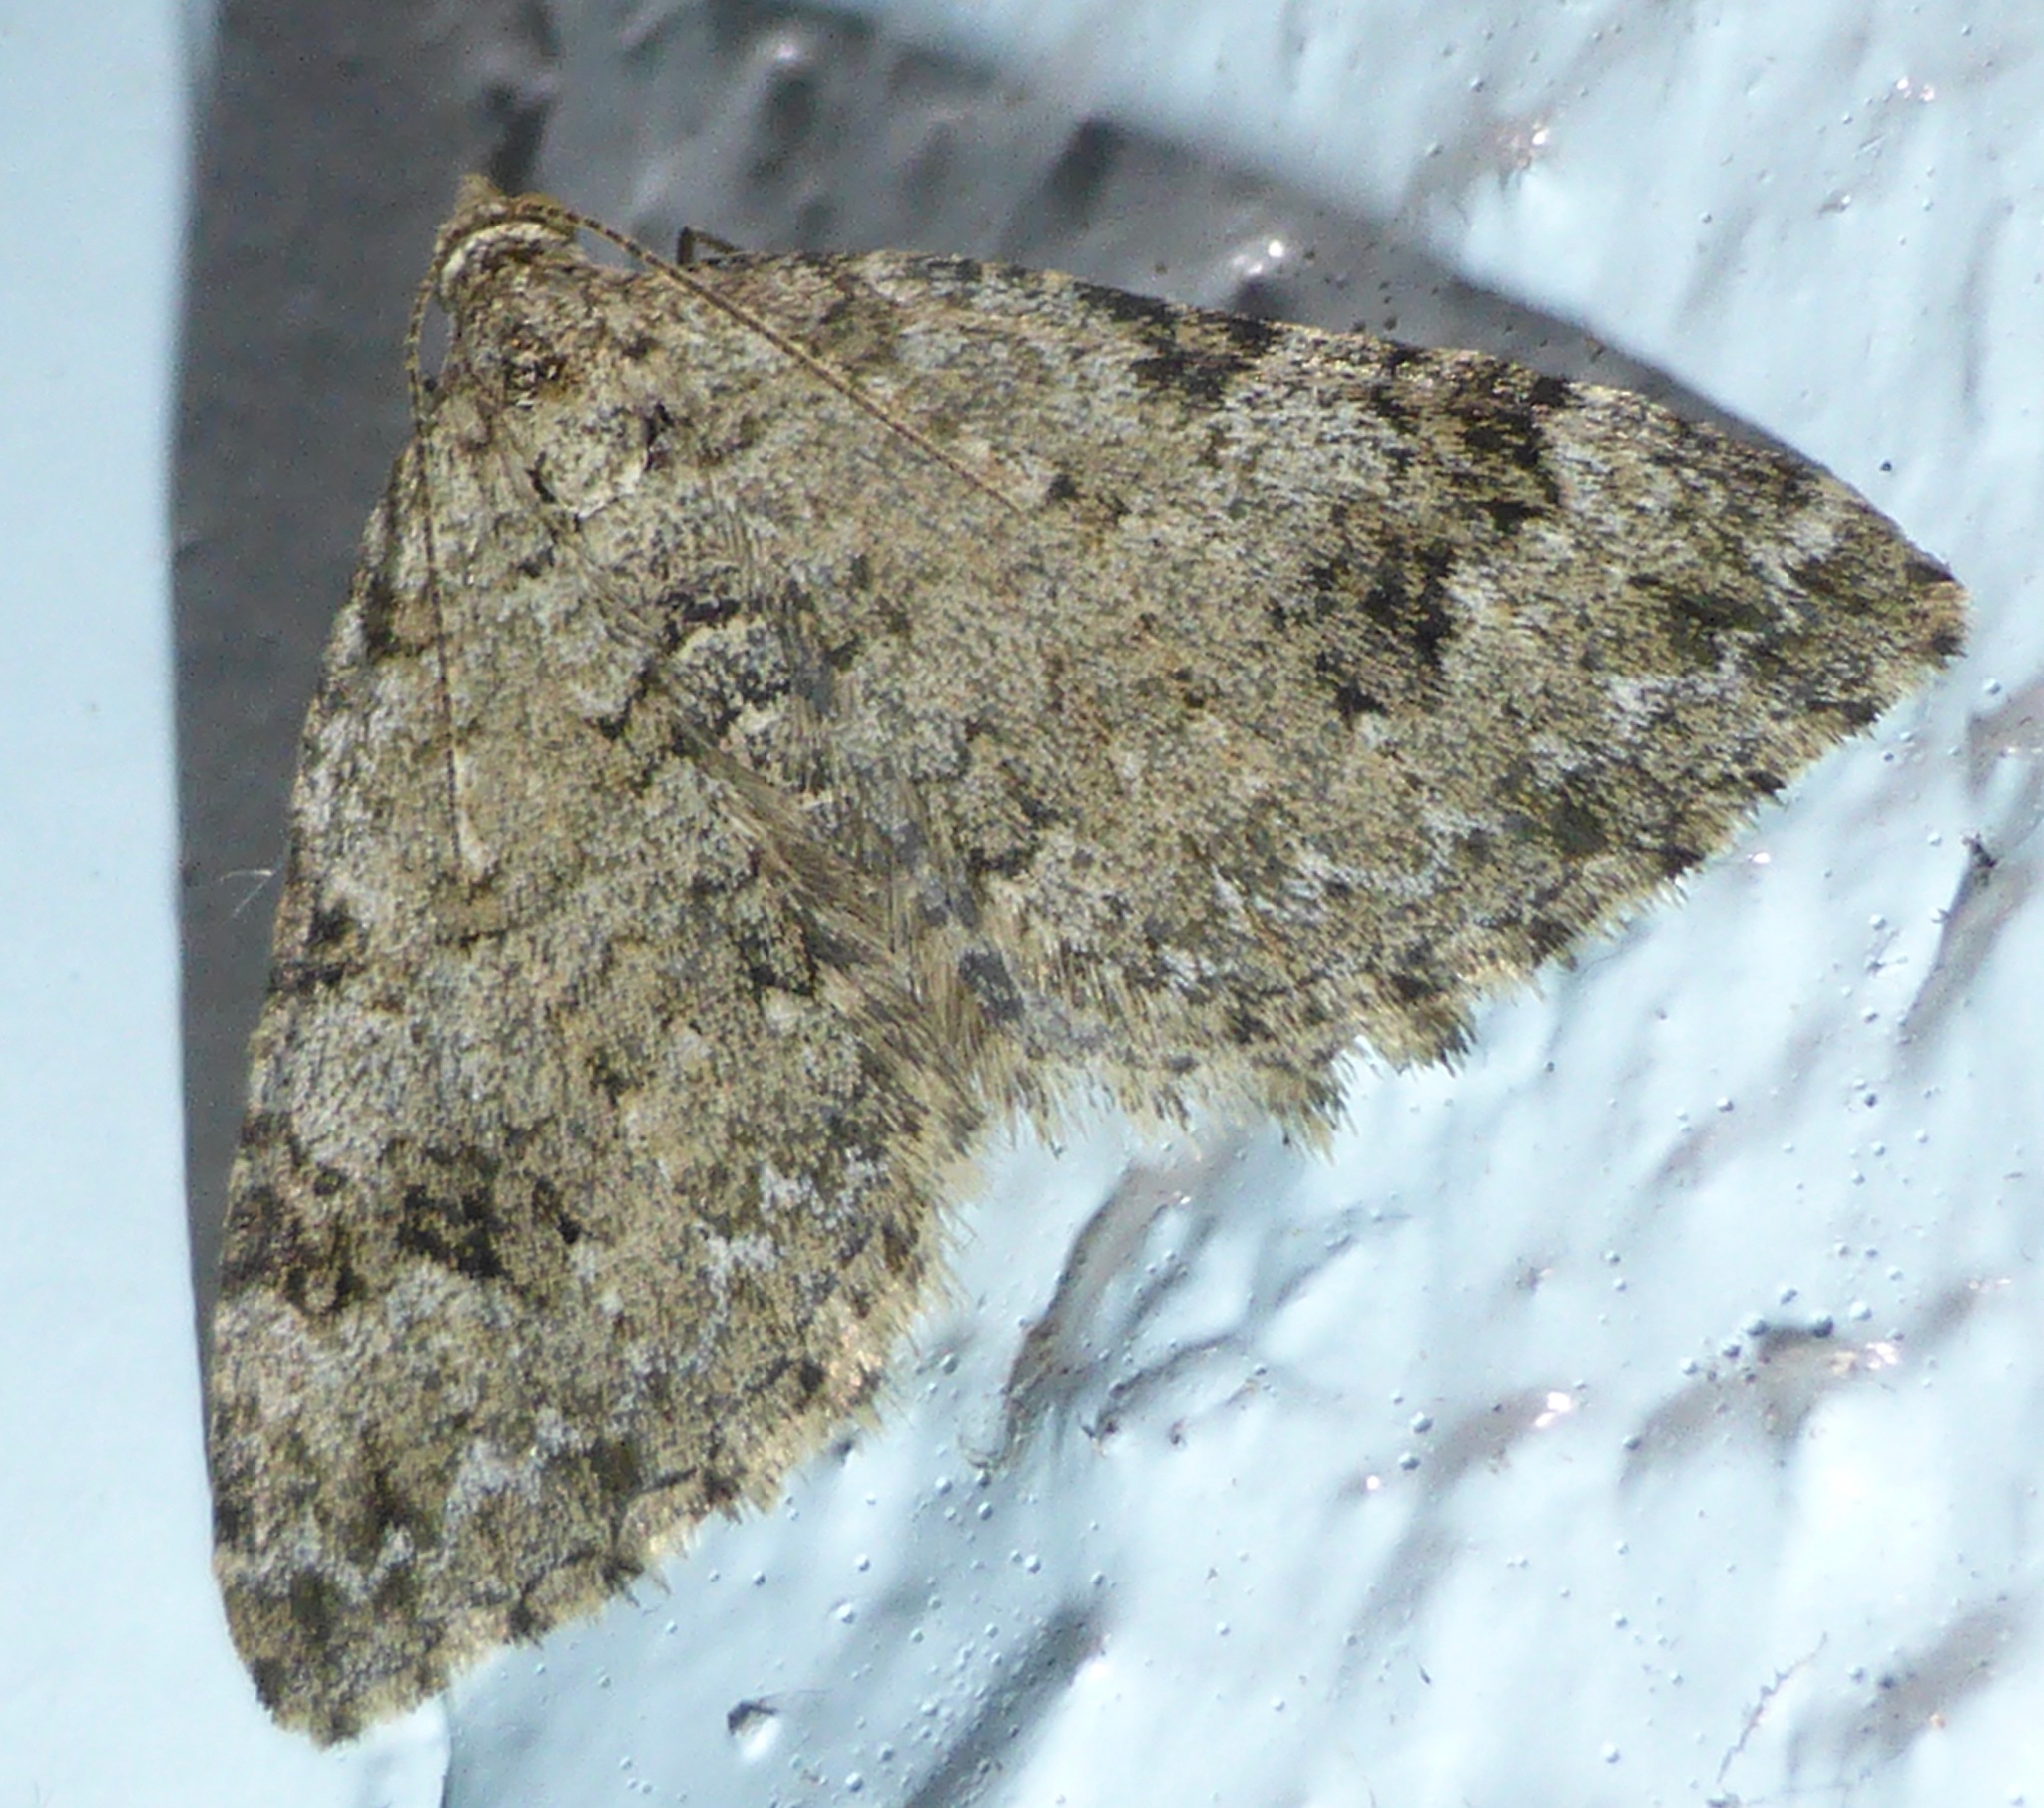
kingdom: Animalia
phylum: Arthropoda
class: Insecta
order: Lepidoptera
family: Geometridae
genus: Helastia
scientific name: Helastia cinerearia
